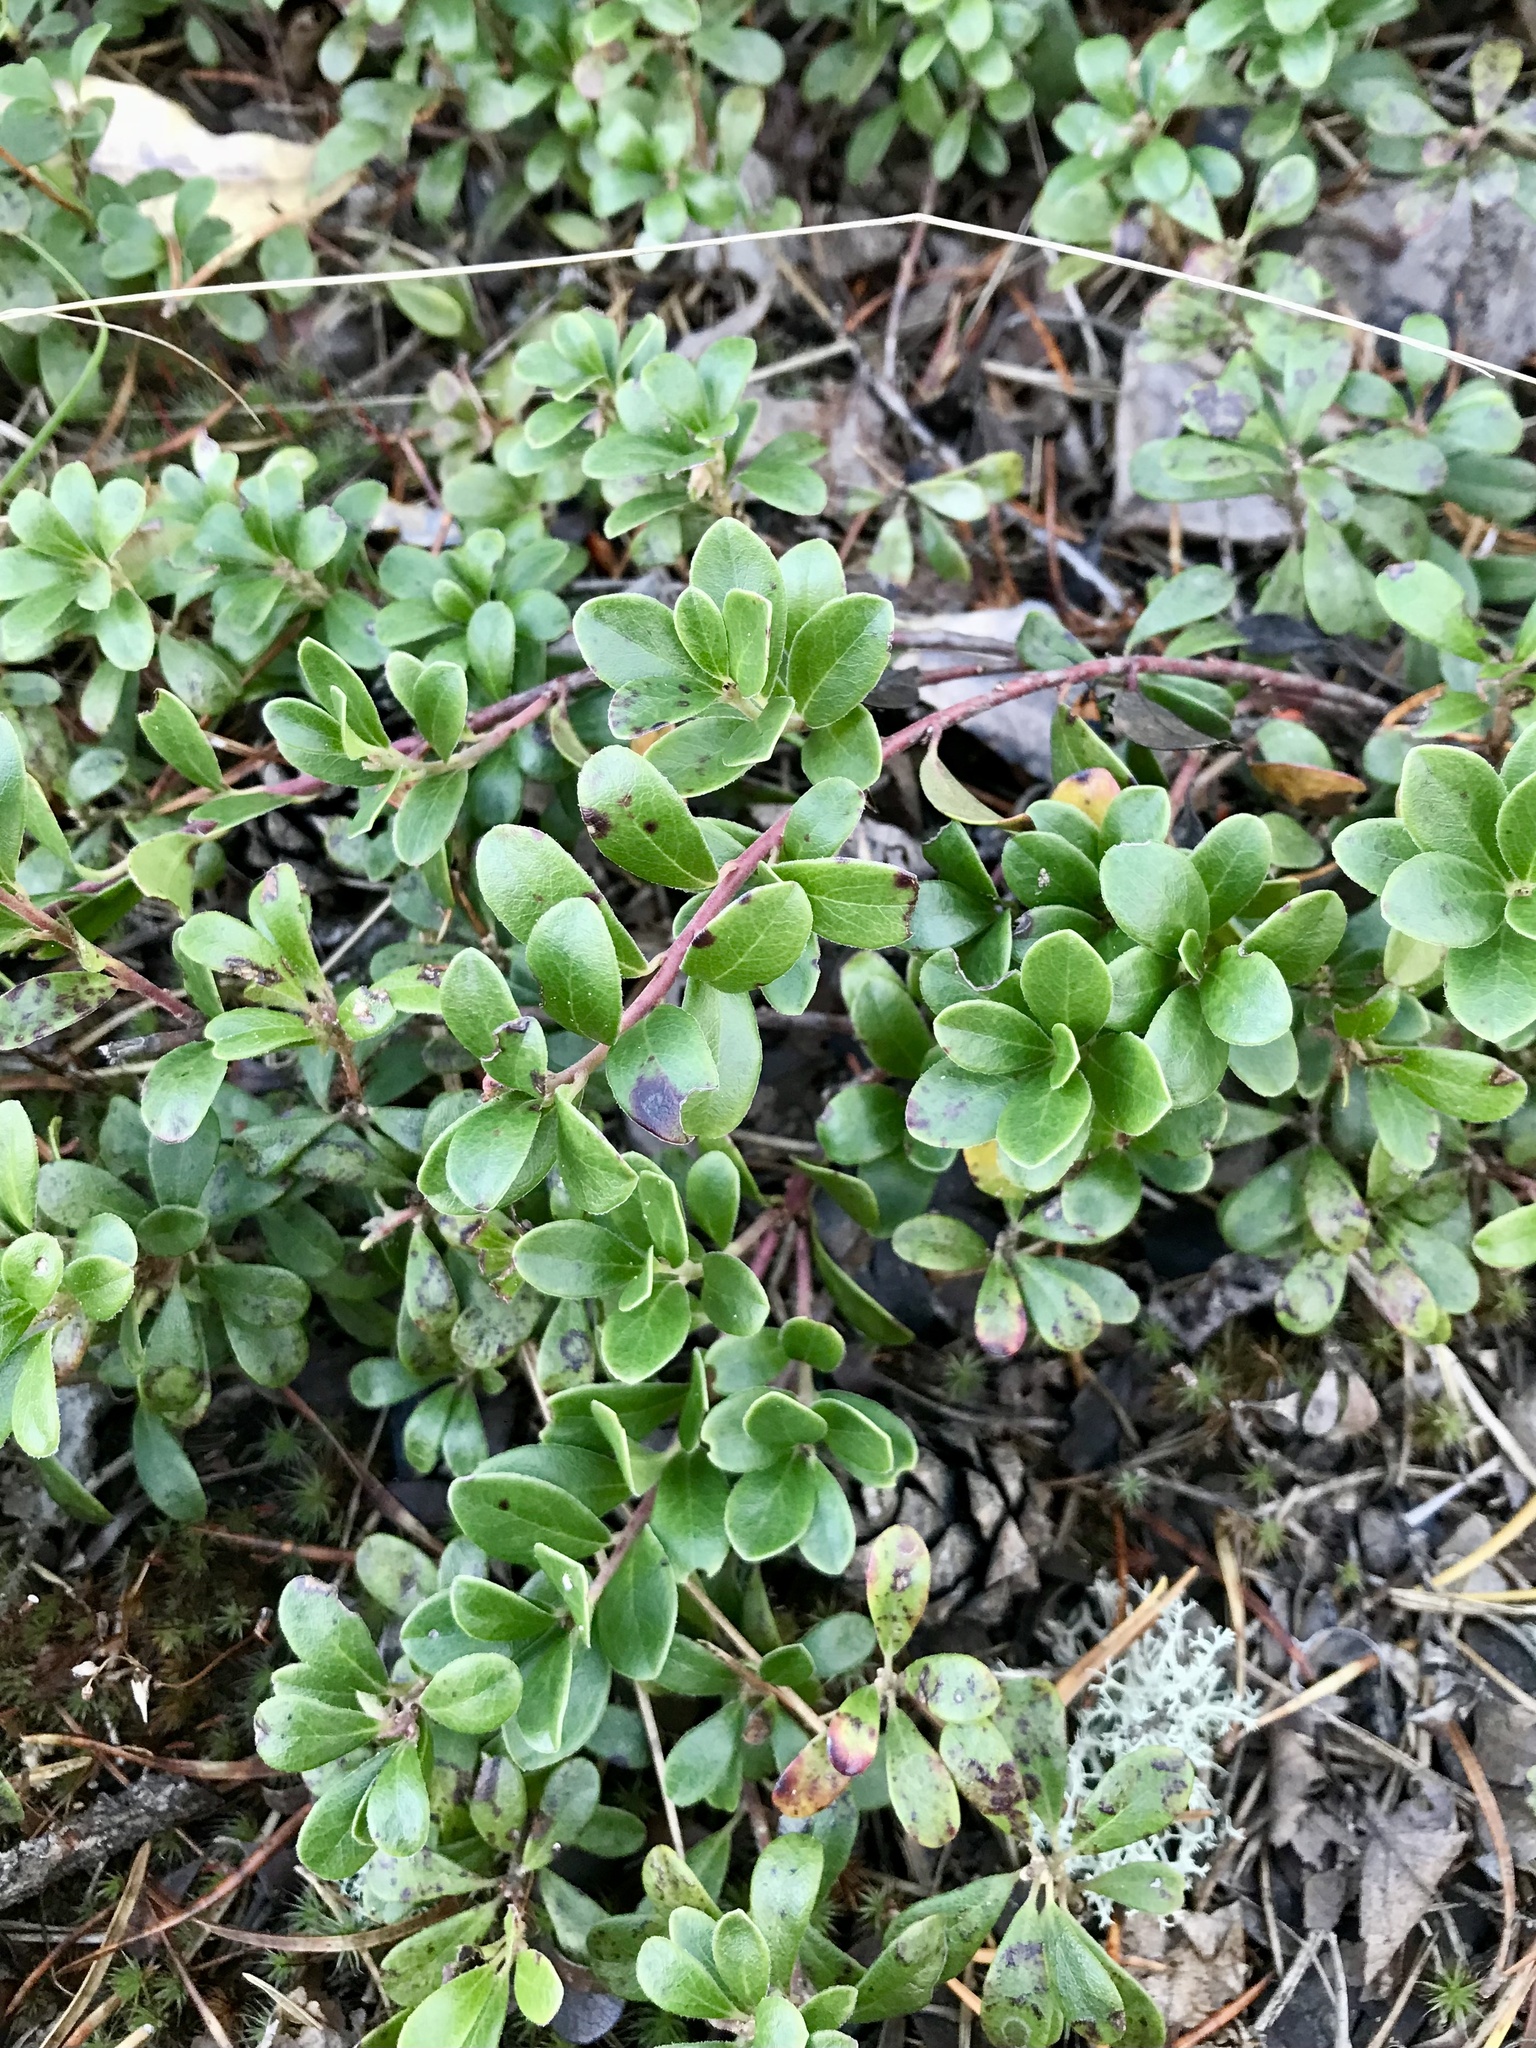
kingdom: Plantae
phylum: Tracheophyta
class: Magnoliopsida
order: Ericales
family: Ericaceae
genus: Arctostaphylos
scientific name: Arctostaphylos uva-ursi
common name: Bearberry
